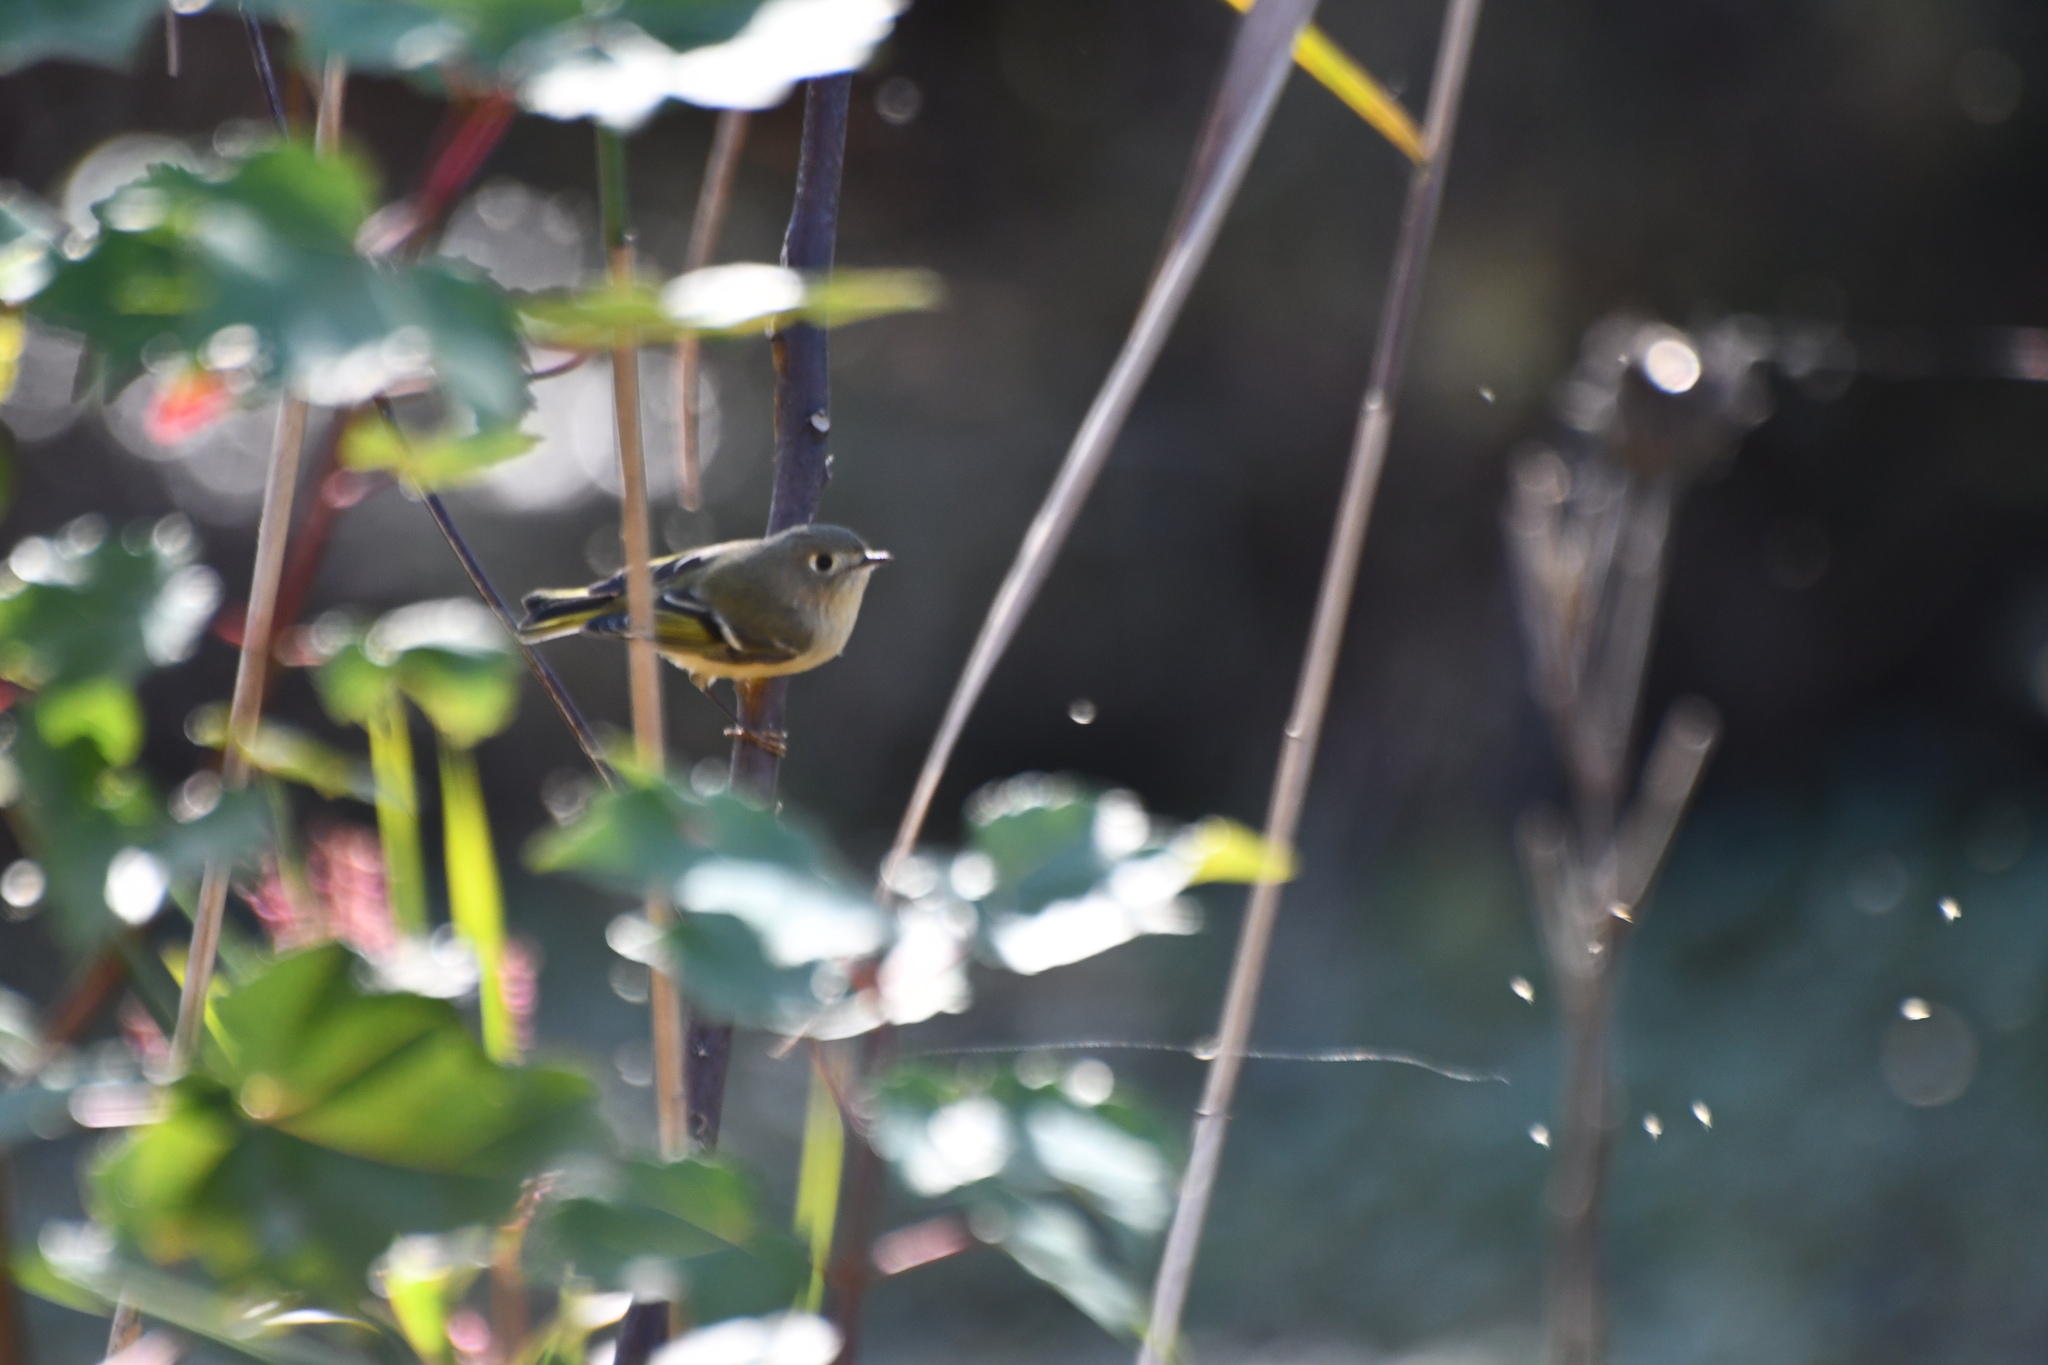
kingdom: Animalia
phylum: Chordata
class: Aves
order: Passeriformes
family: Regulidae
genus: Regulus
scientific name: Regulus calendula
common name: Ruby-crowned kinglet
